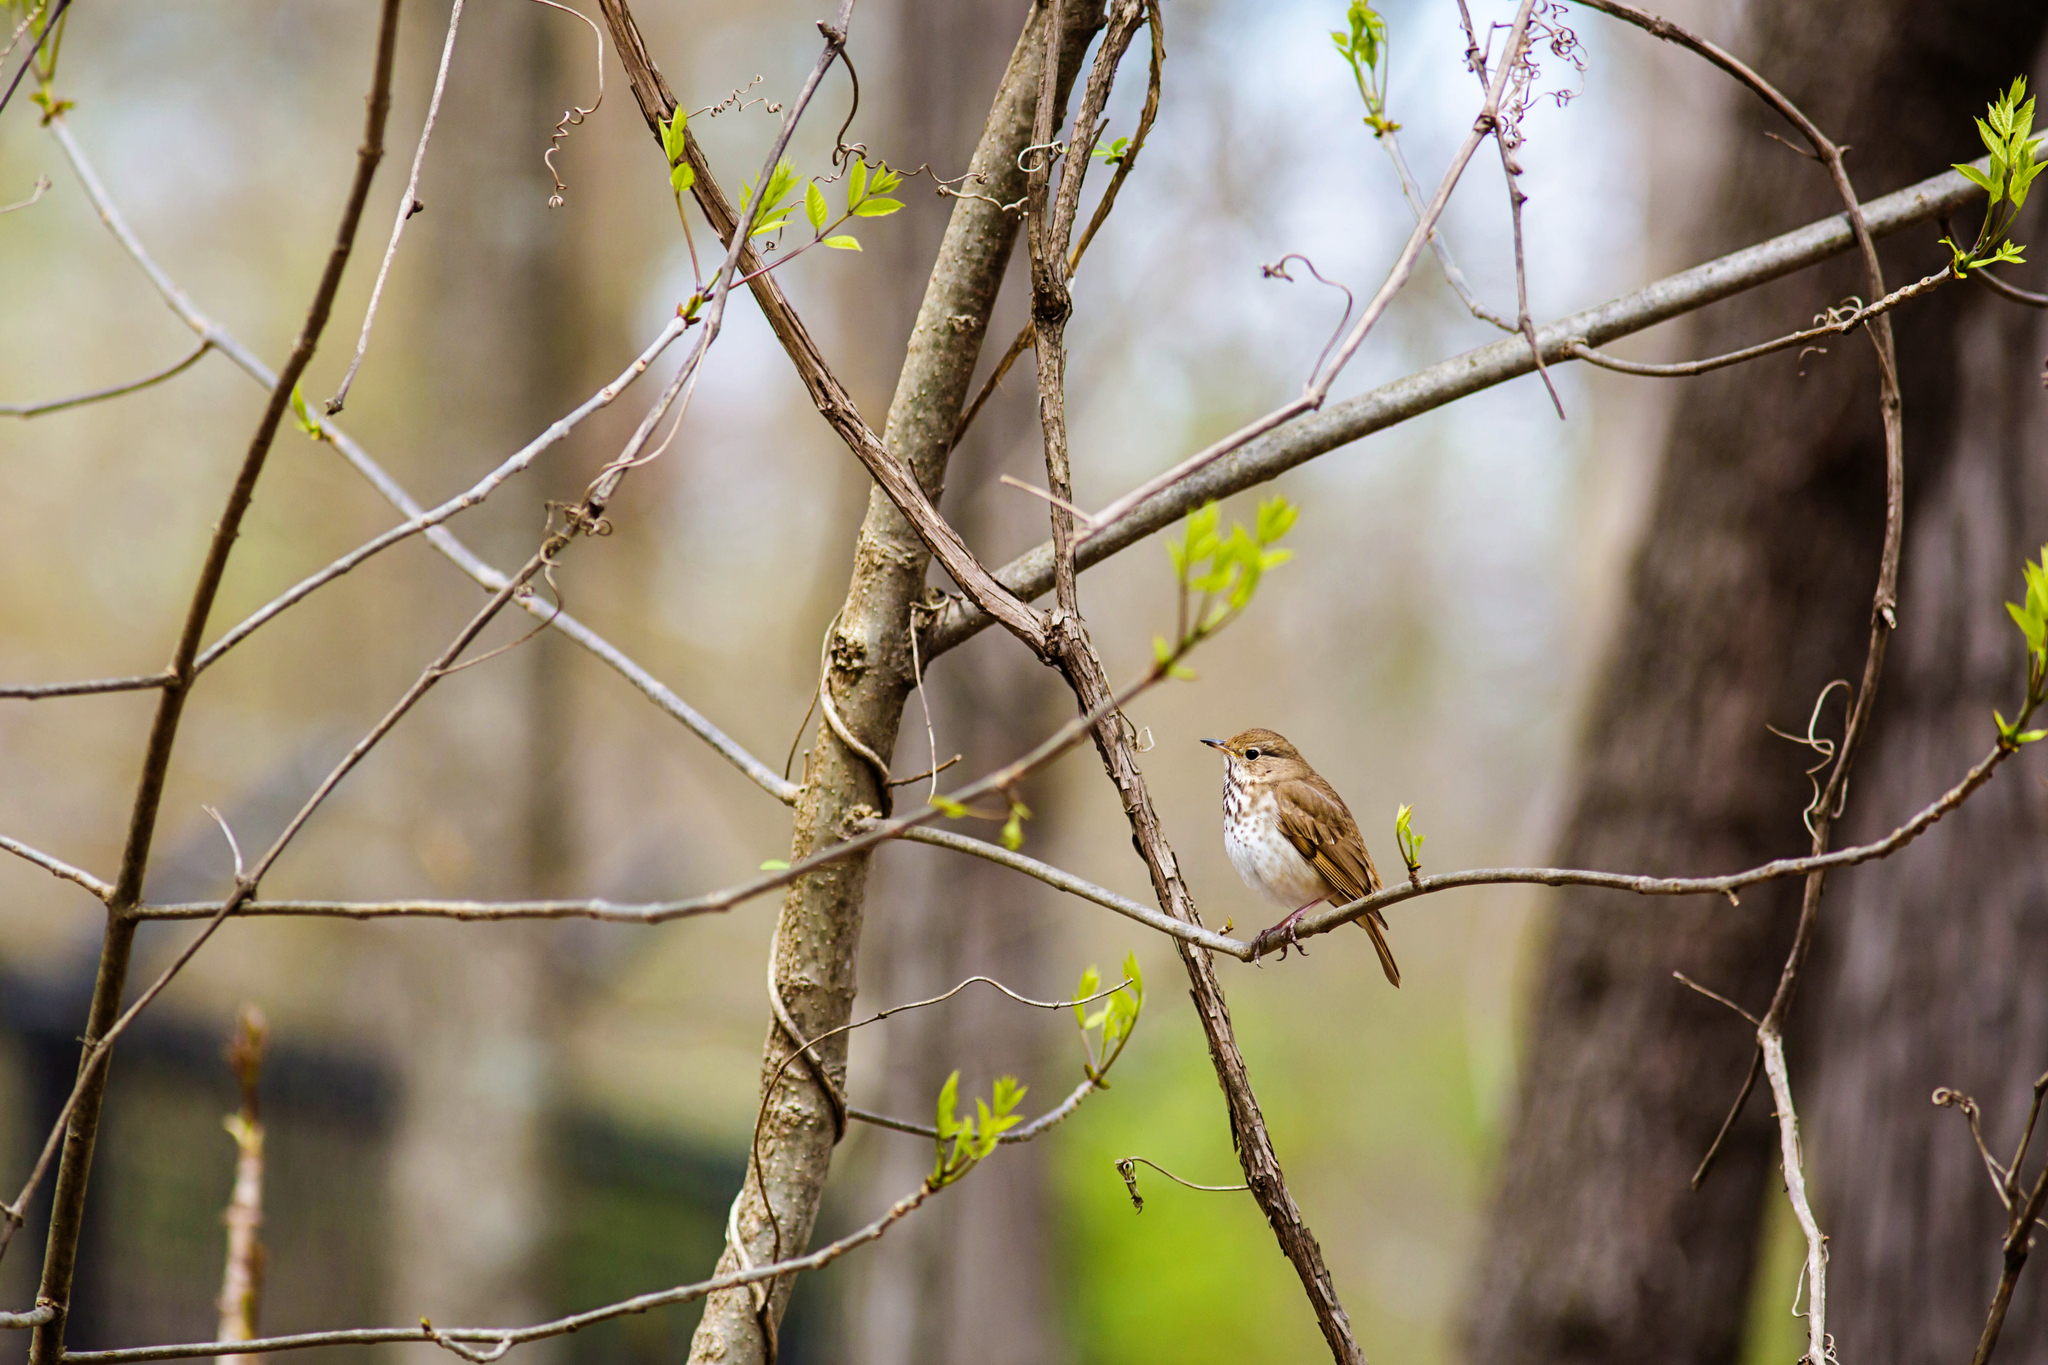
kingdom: Animalia
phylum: Chordata
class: Aves
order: Passeriformes
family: Turdidae
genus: Catharus
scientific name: Catharus guttatus
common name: Hermit thrush
